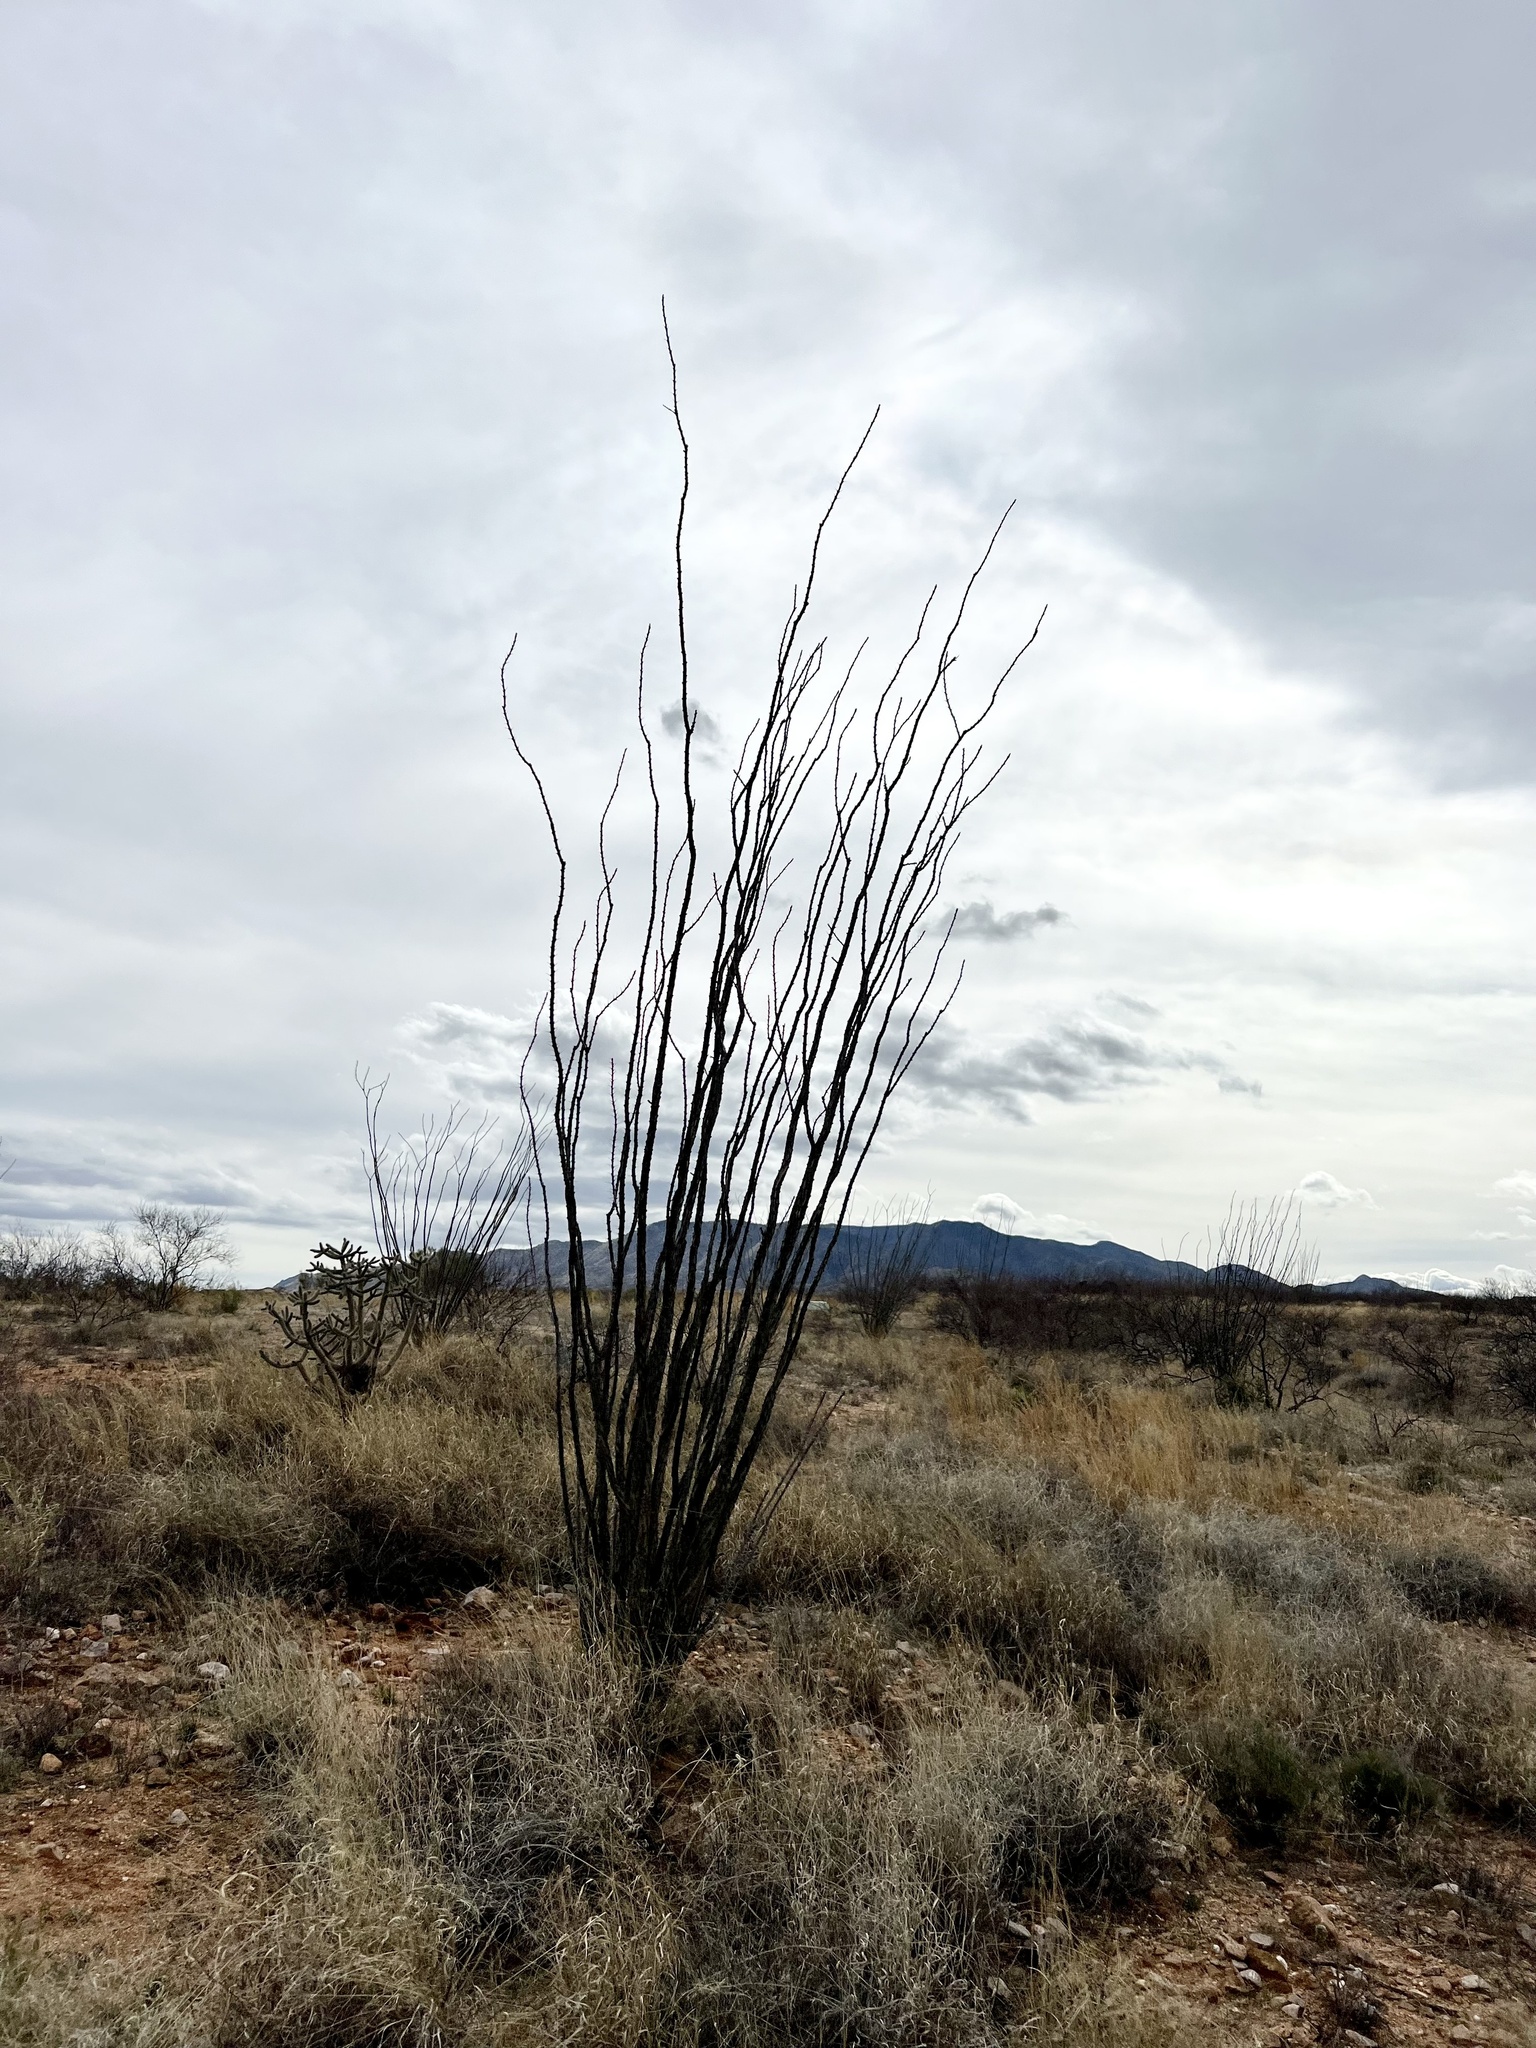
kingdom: Plantae
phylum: Tracheophyta
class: Magnoliopsida
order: Ericales
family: Fouquieriaceae
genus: Fouquieria
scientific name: Fouquieria splendens
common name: Vine-cactus
